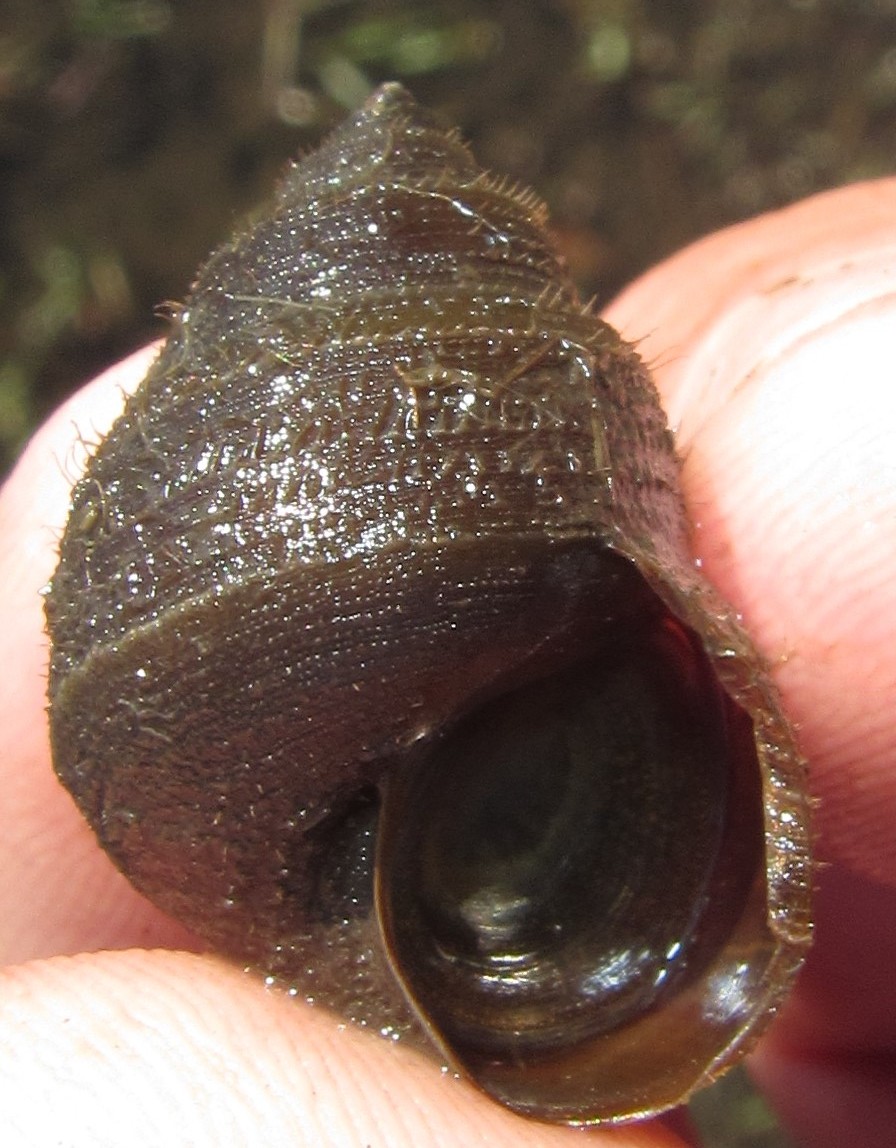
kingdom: Animalia
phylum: Mollusca
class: Gastropoda
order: Architaenioglossa
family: Viviparidae
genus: Bellamya
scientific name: Bellamya capillata
